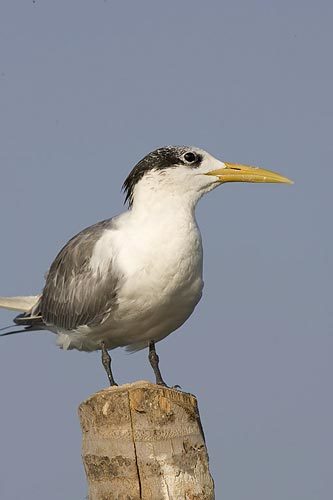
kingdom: Animalia
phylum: Chordata
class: Aves
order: Charadriiformes
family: Laridae
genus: Thalasseus
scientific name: Thalasseus bergii
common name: Greater crested tern
